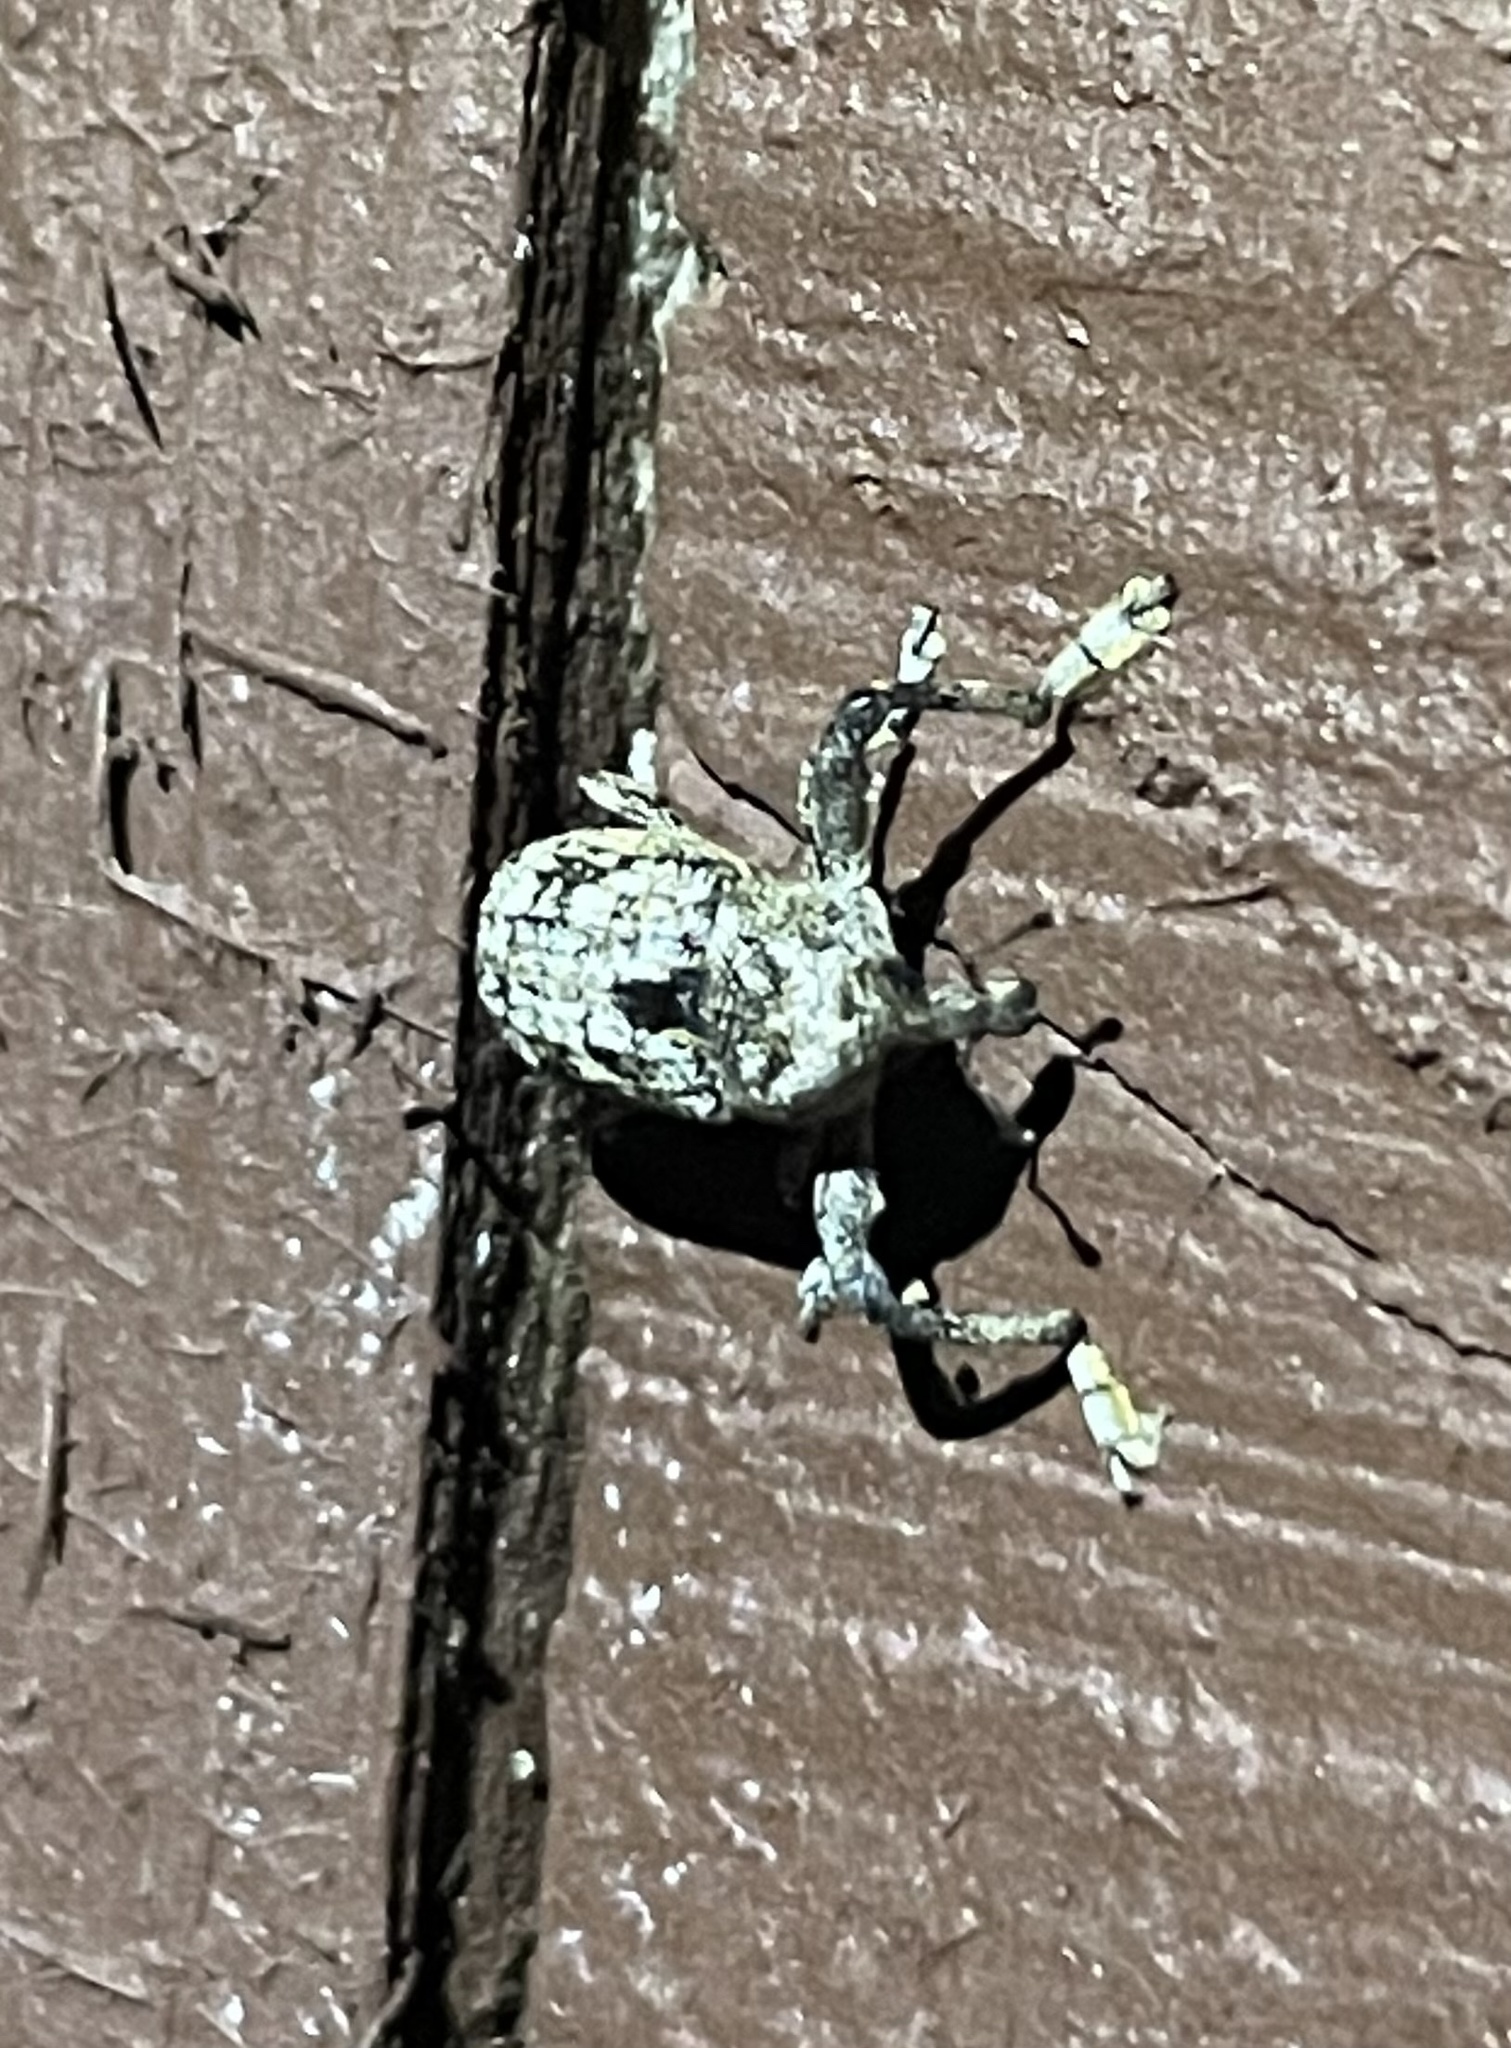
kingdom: Animalia
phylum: Arthropoda
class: Insecta
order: Coleoptera
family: Curculionidae
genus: Episcirrus
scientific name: Episcirrus brachialis
